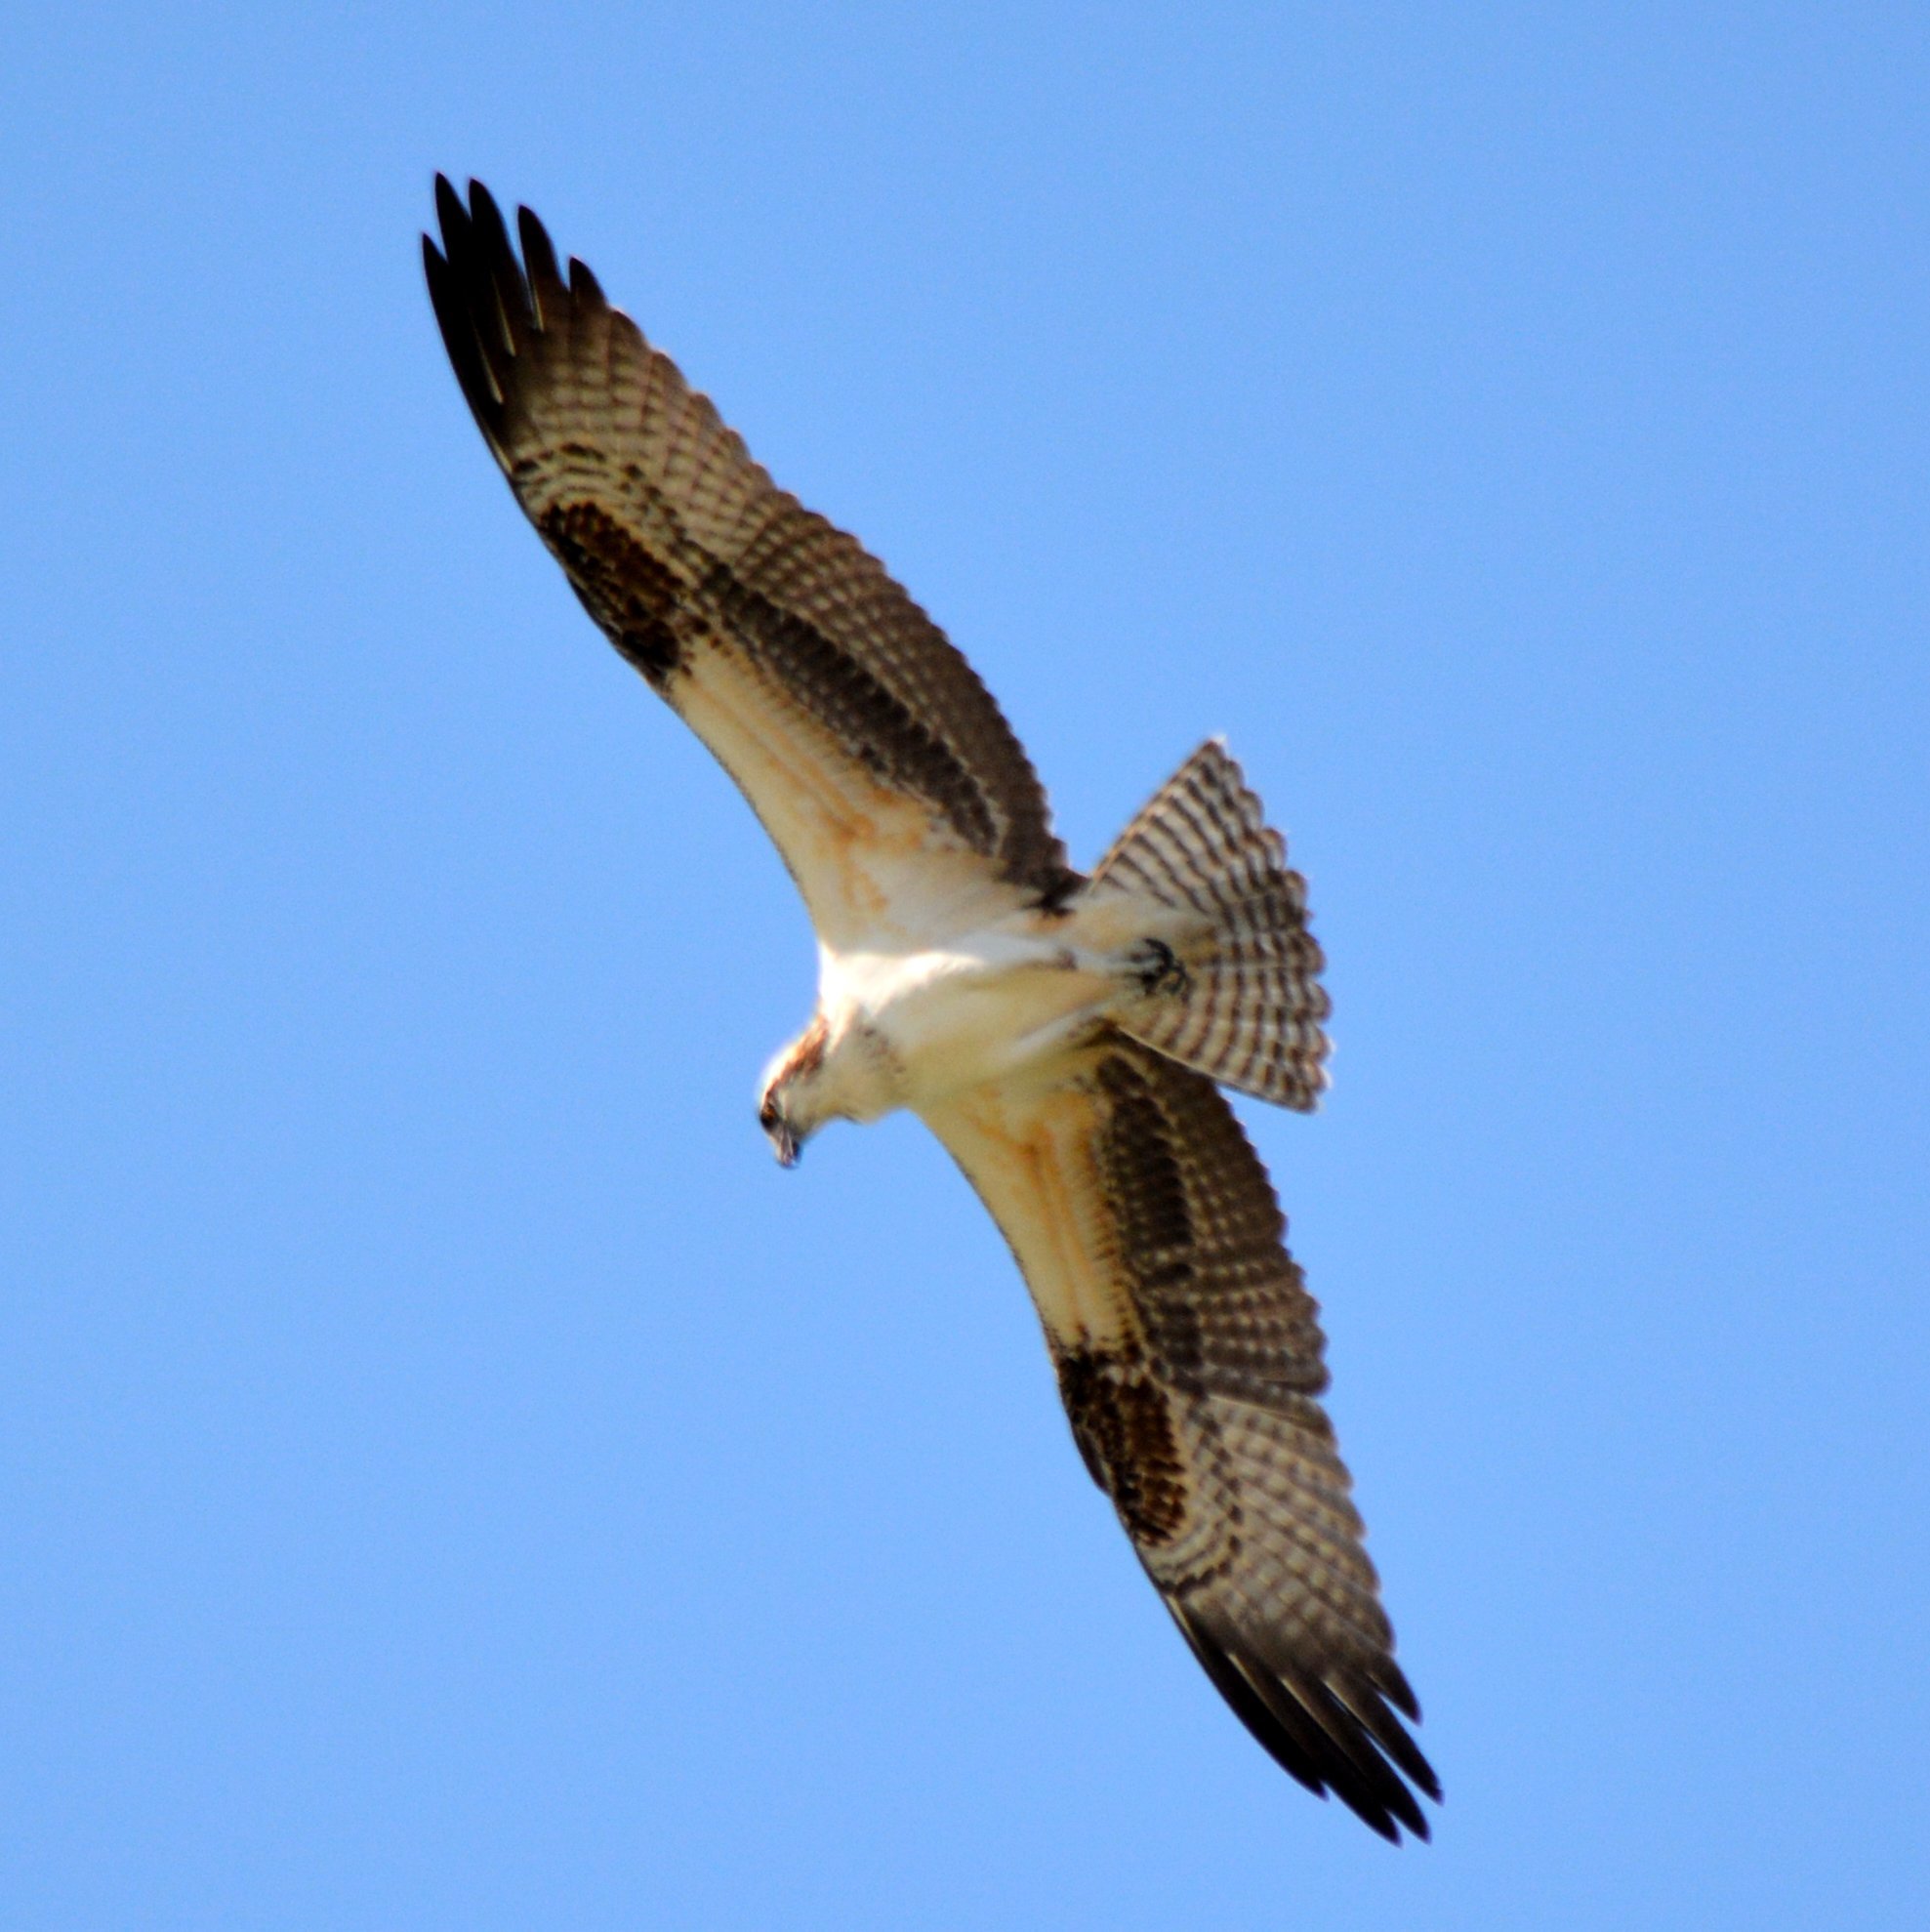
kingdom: Animalia
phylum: Chordata
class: Aves
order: Accipitriformes
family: Pandionidae
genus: Pandion
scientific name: Pandion haliaetus
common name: Osprey
